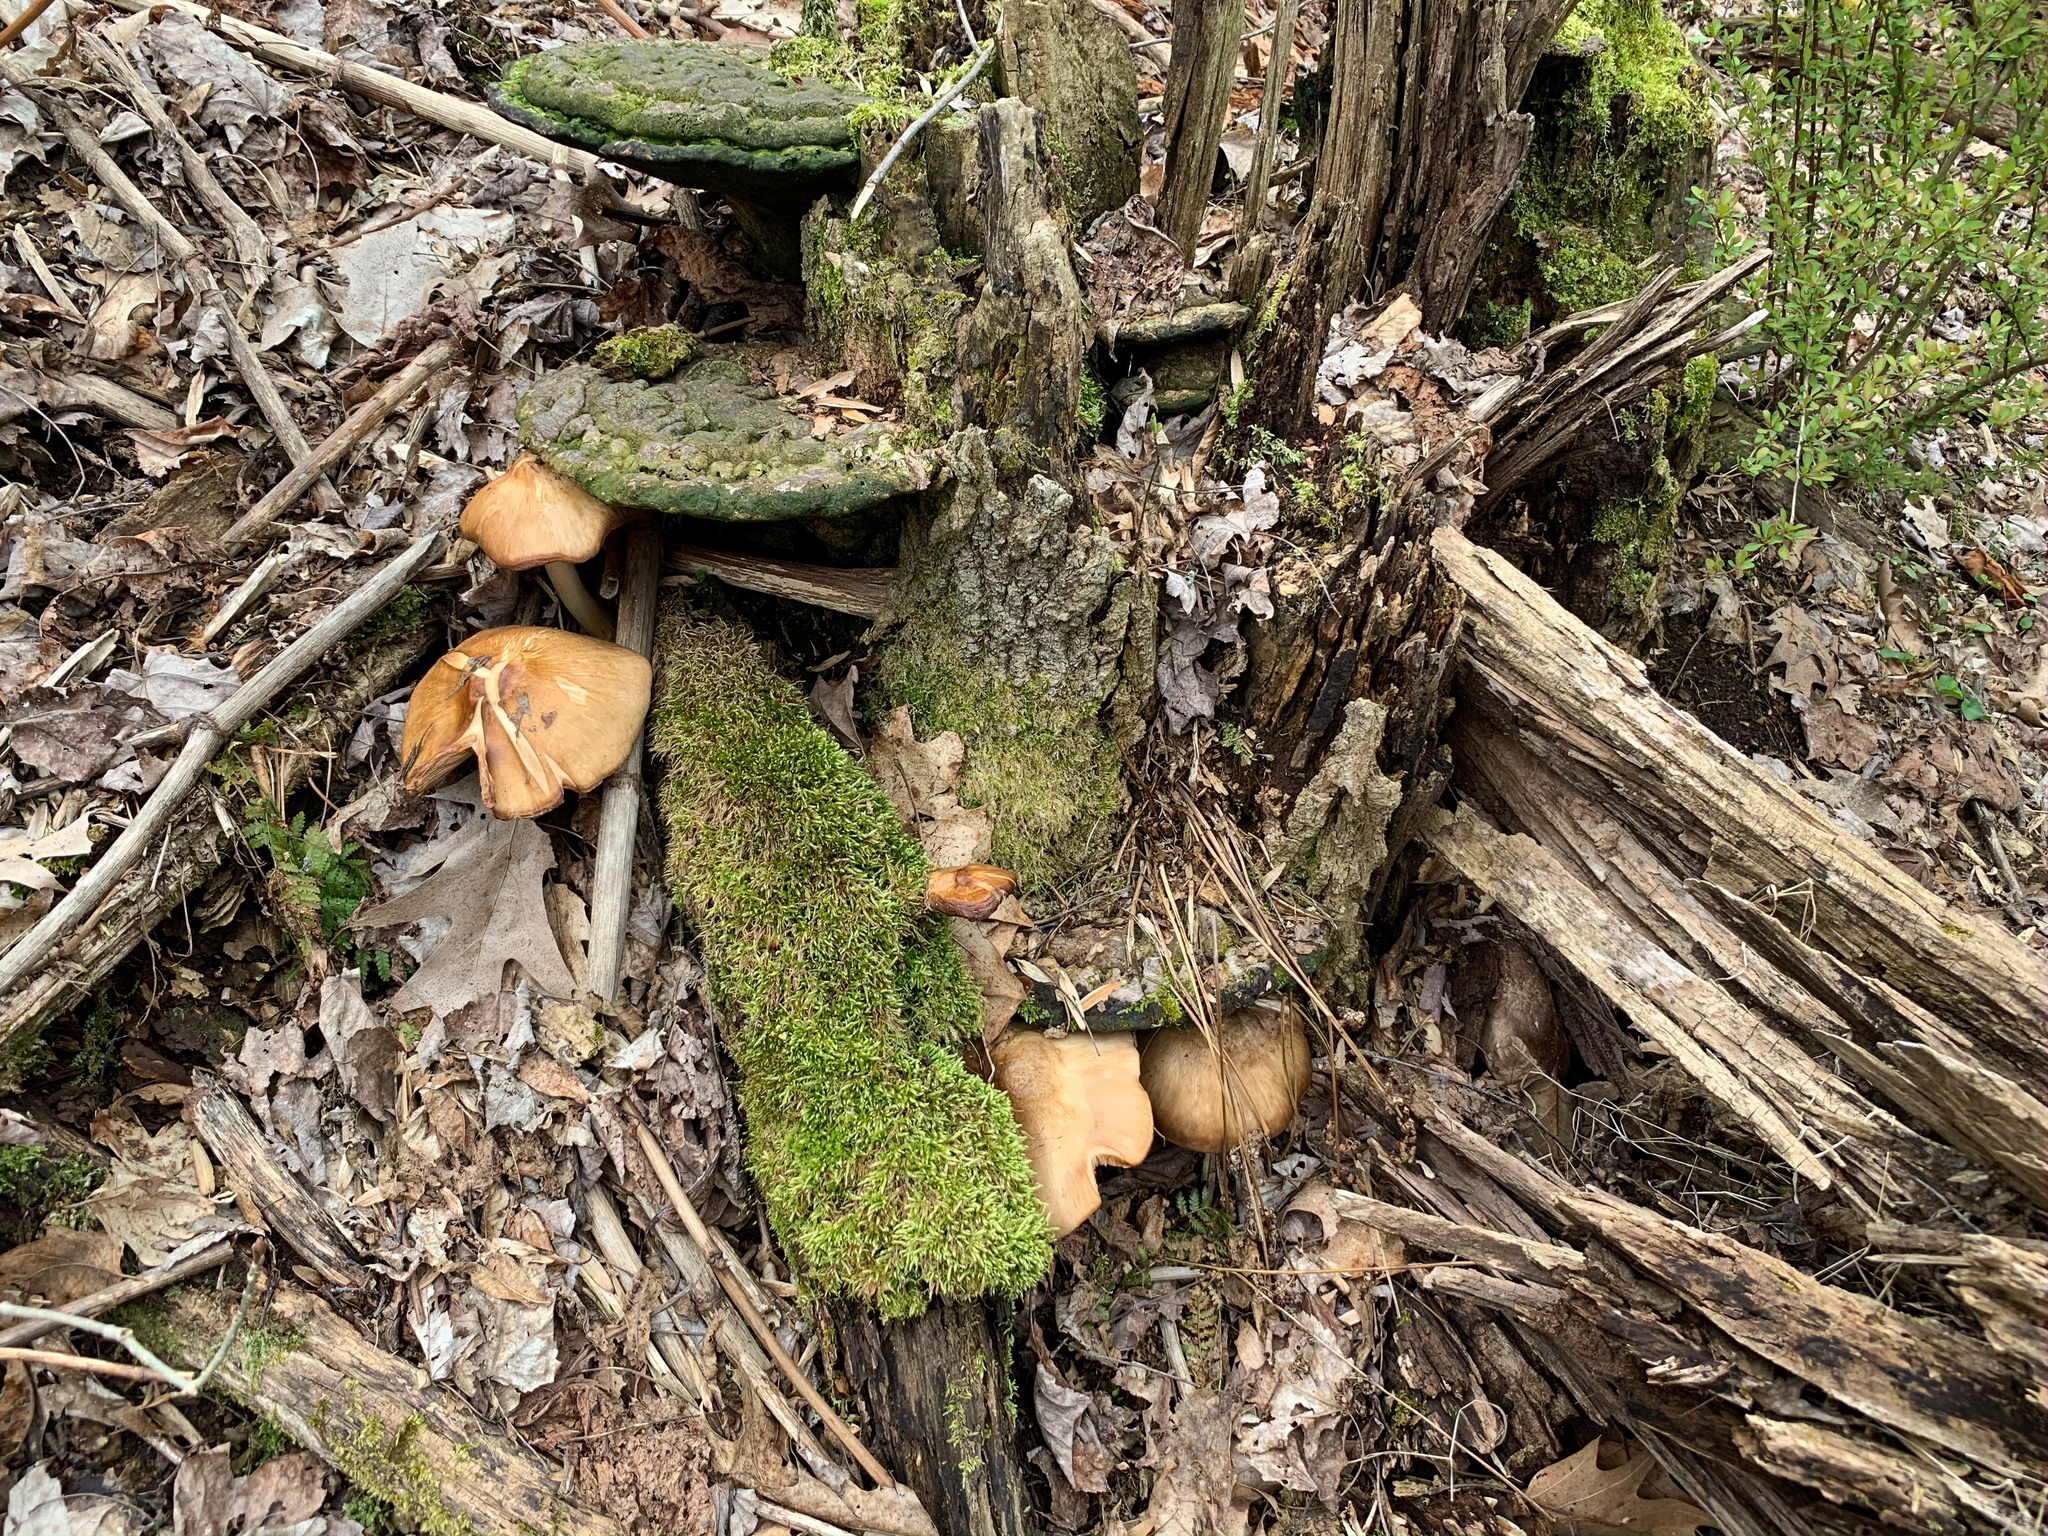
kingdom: Fungi
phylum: Basidiomycota
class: Agaricomycetes
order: Agaricales
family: Pluteaceae
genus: Pluteus
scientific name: Pluteus cervinus
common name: Deer shield
